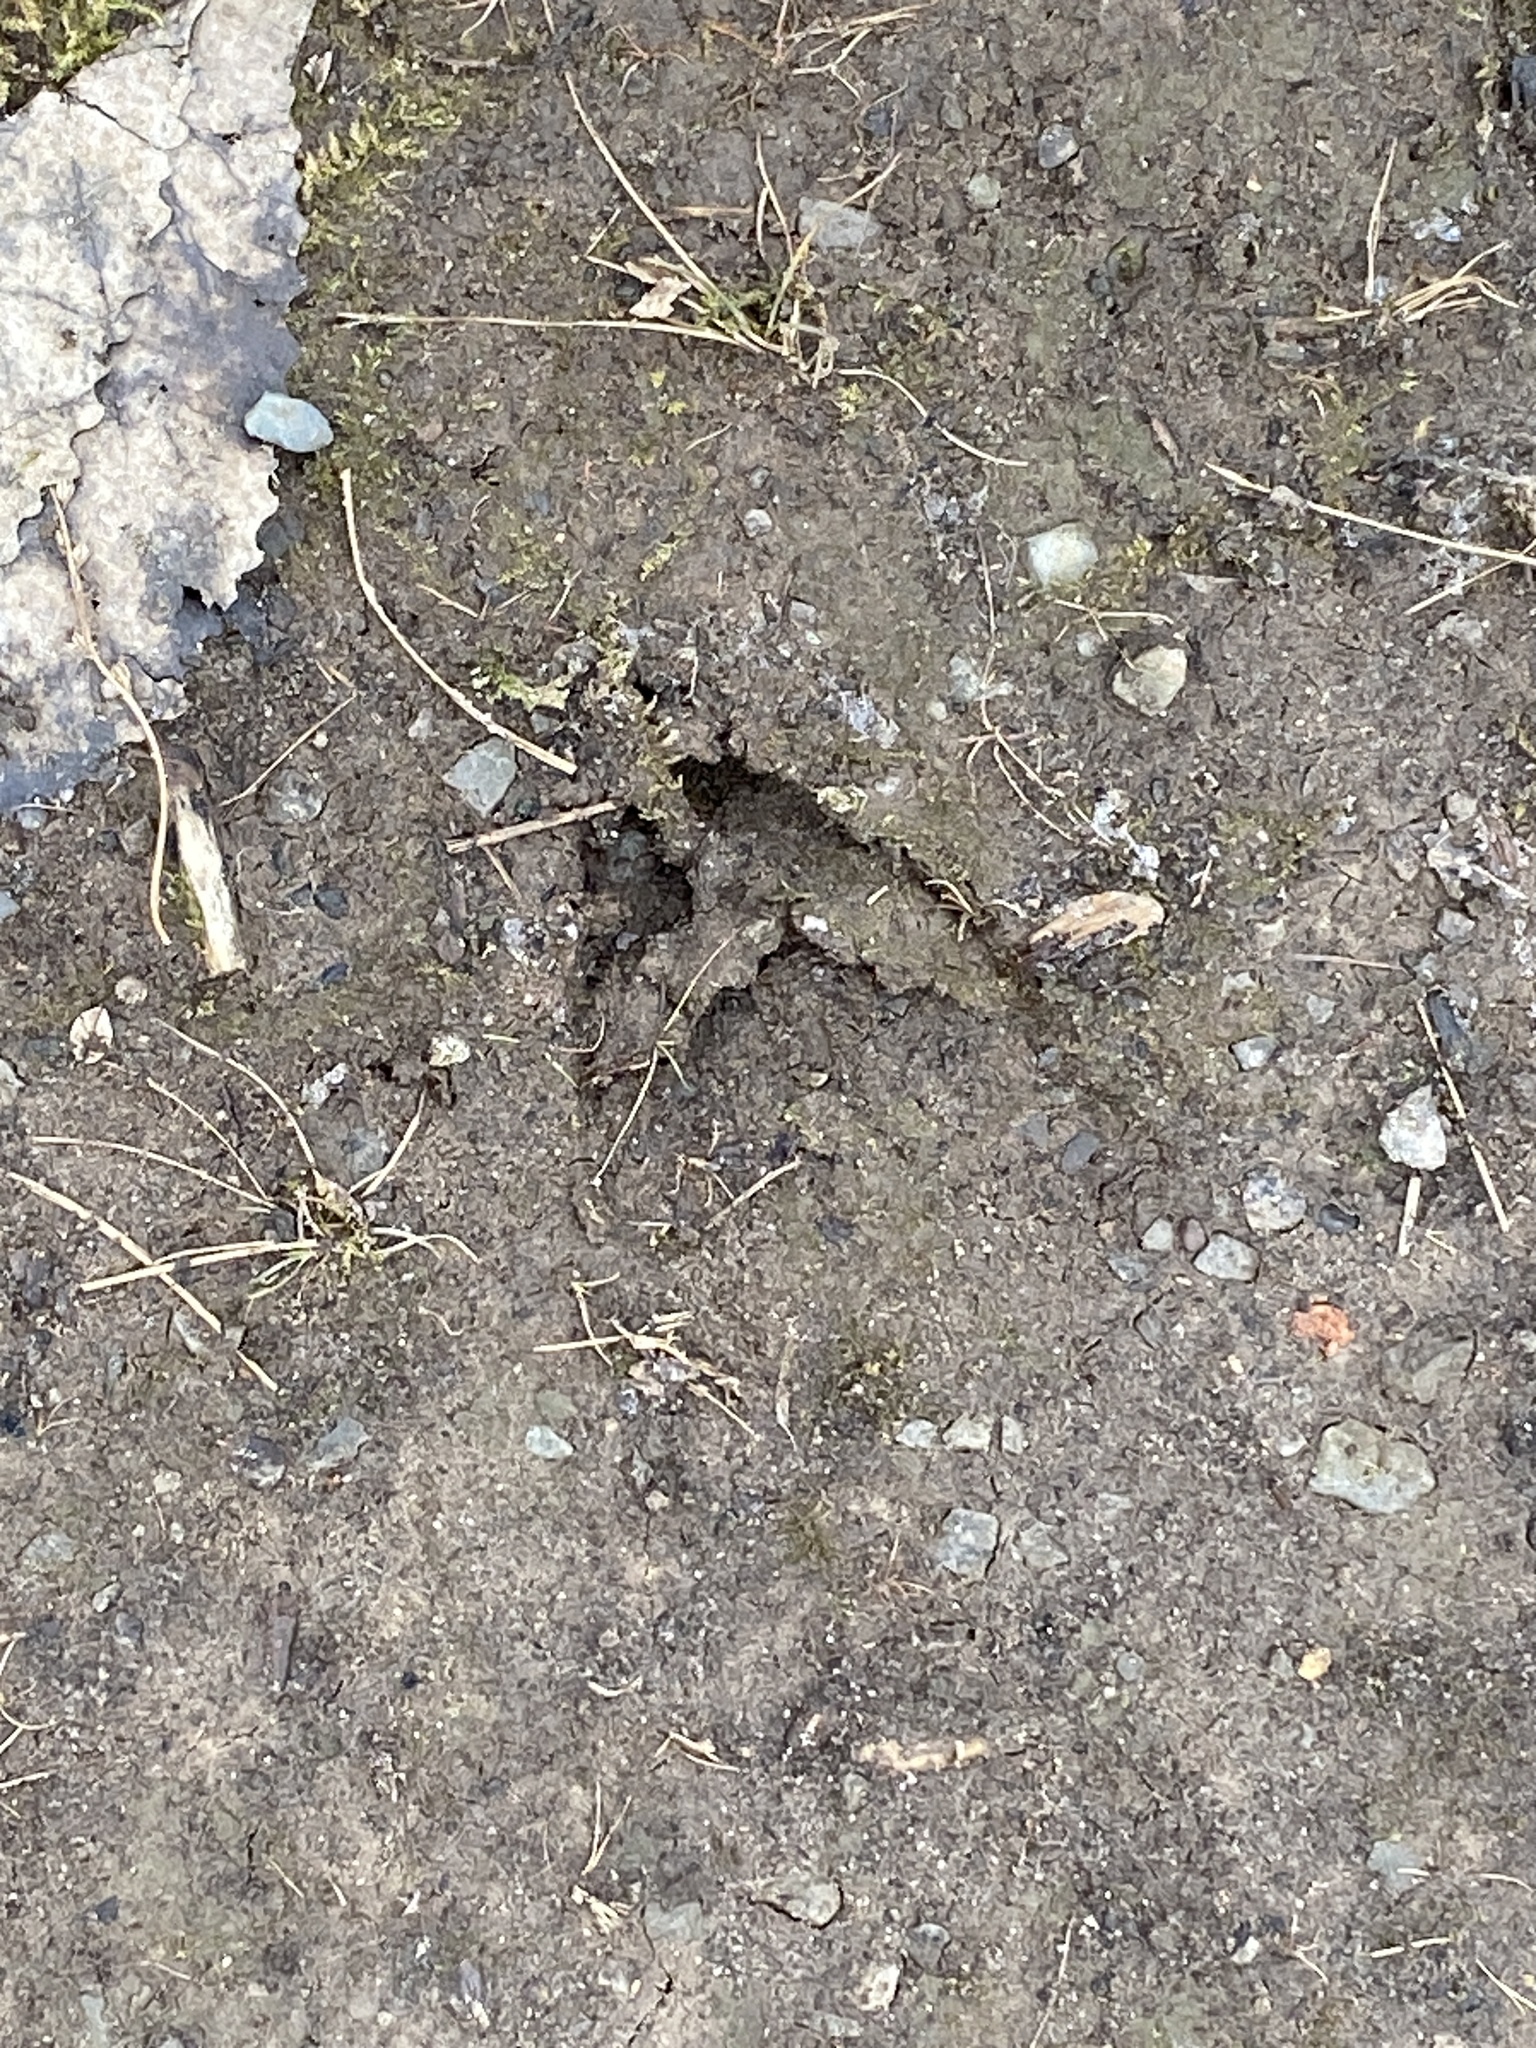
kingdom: Animalia
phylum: Chordata
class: Mammalia
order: Artiodactyla
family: Cervidae
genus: Odocoileus
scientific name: Odocoileus virginianus
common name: White-tailed deer
